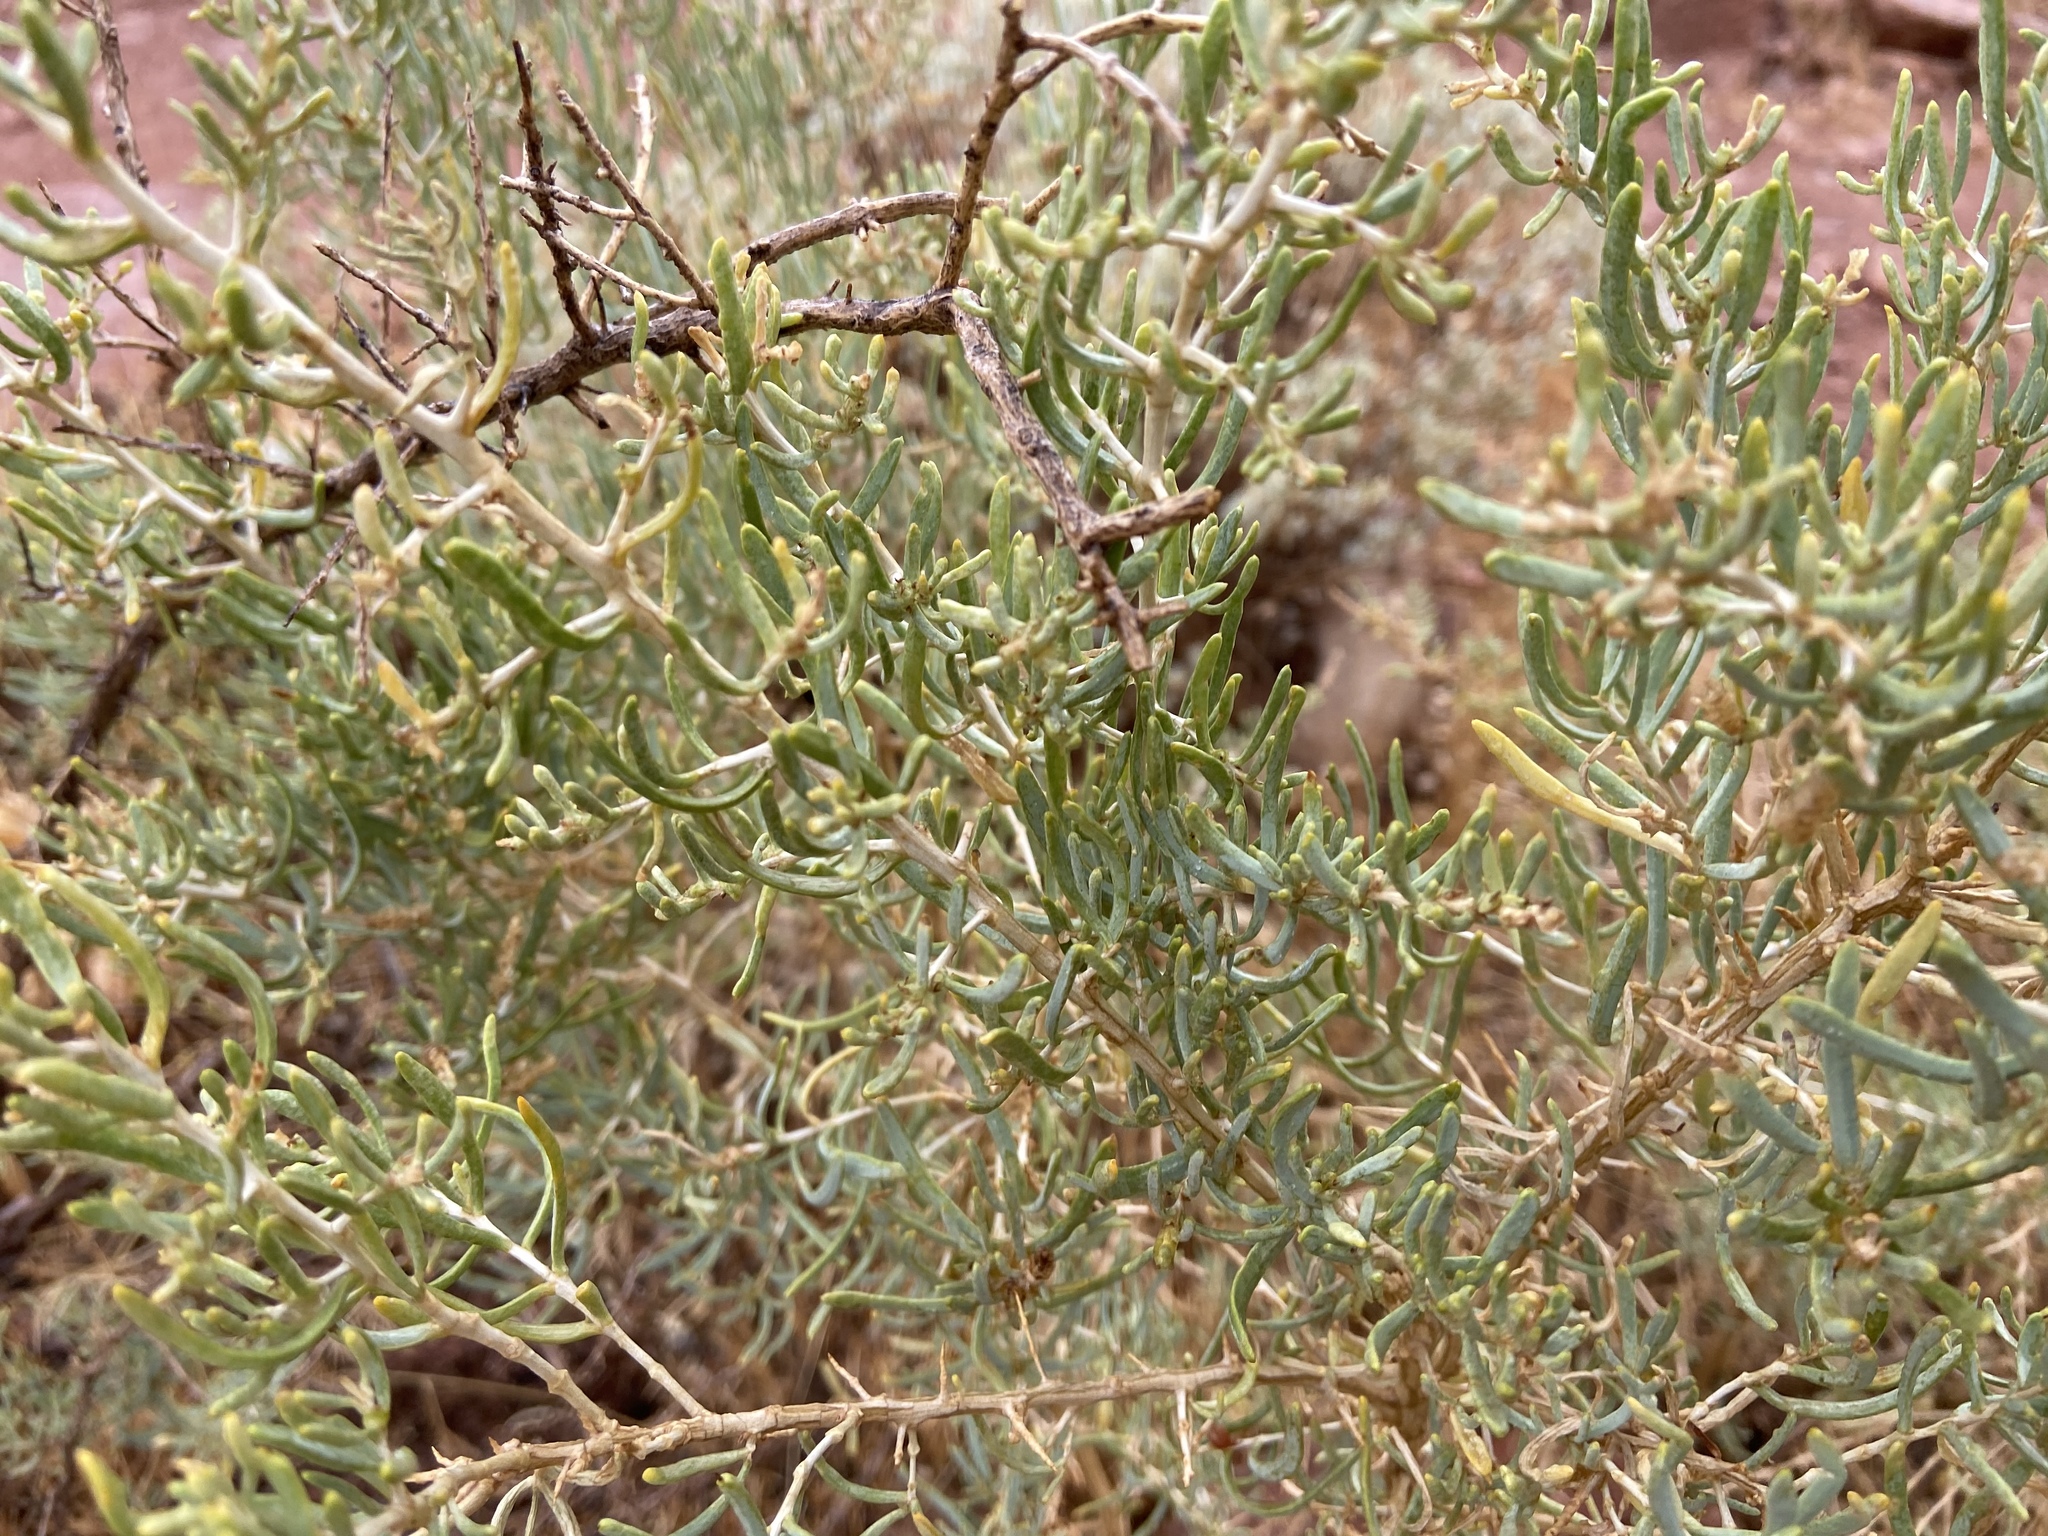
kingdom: Plantae
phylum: Tracheophyta
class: Magnoliopsida
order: Caryophyllales
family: Sarcobataceae
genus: Sarcobatus
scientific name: Sarcobatus vermiculatus
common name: Greasewood
